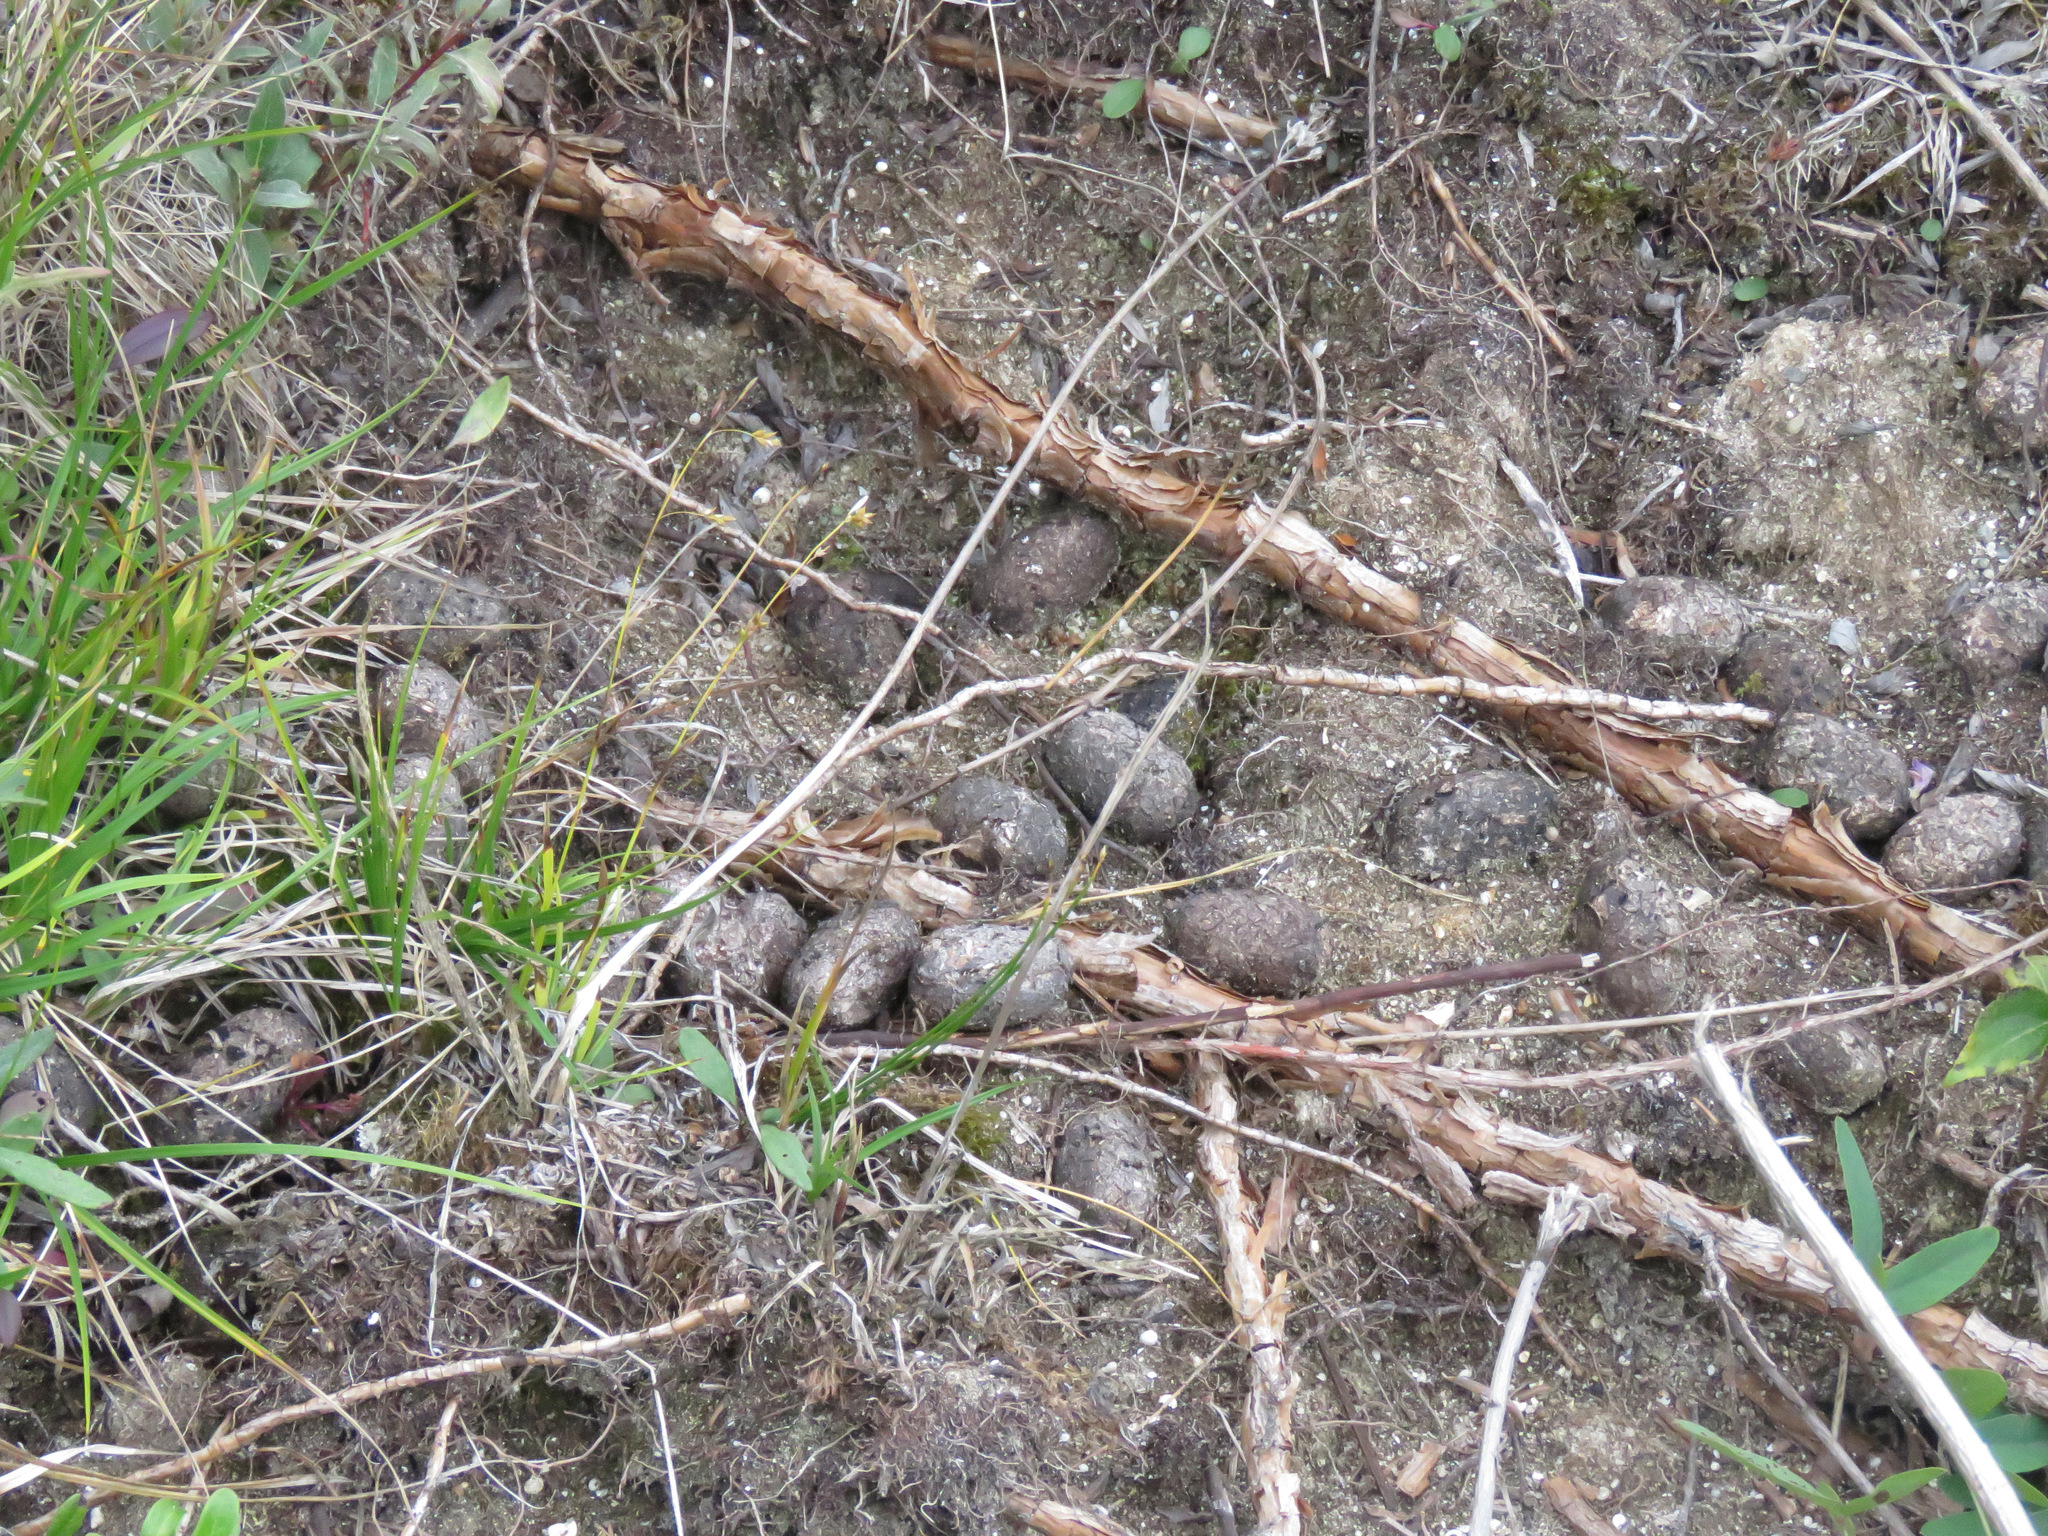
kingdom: Animalia
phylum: Chordata
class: Mammalia
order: Artiodactyla
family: Cervidae
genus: Alces
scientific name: Alces alces
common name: Moose
